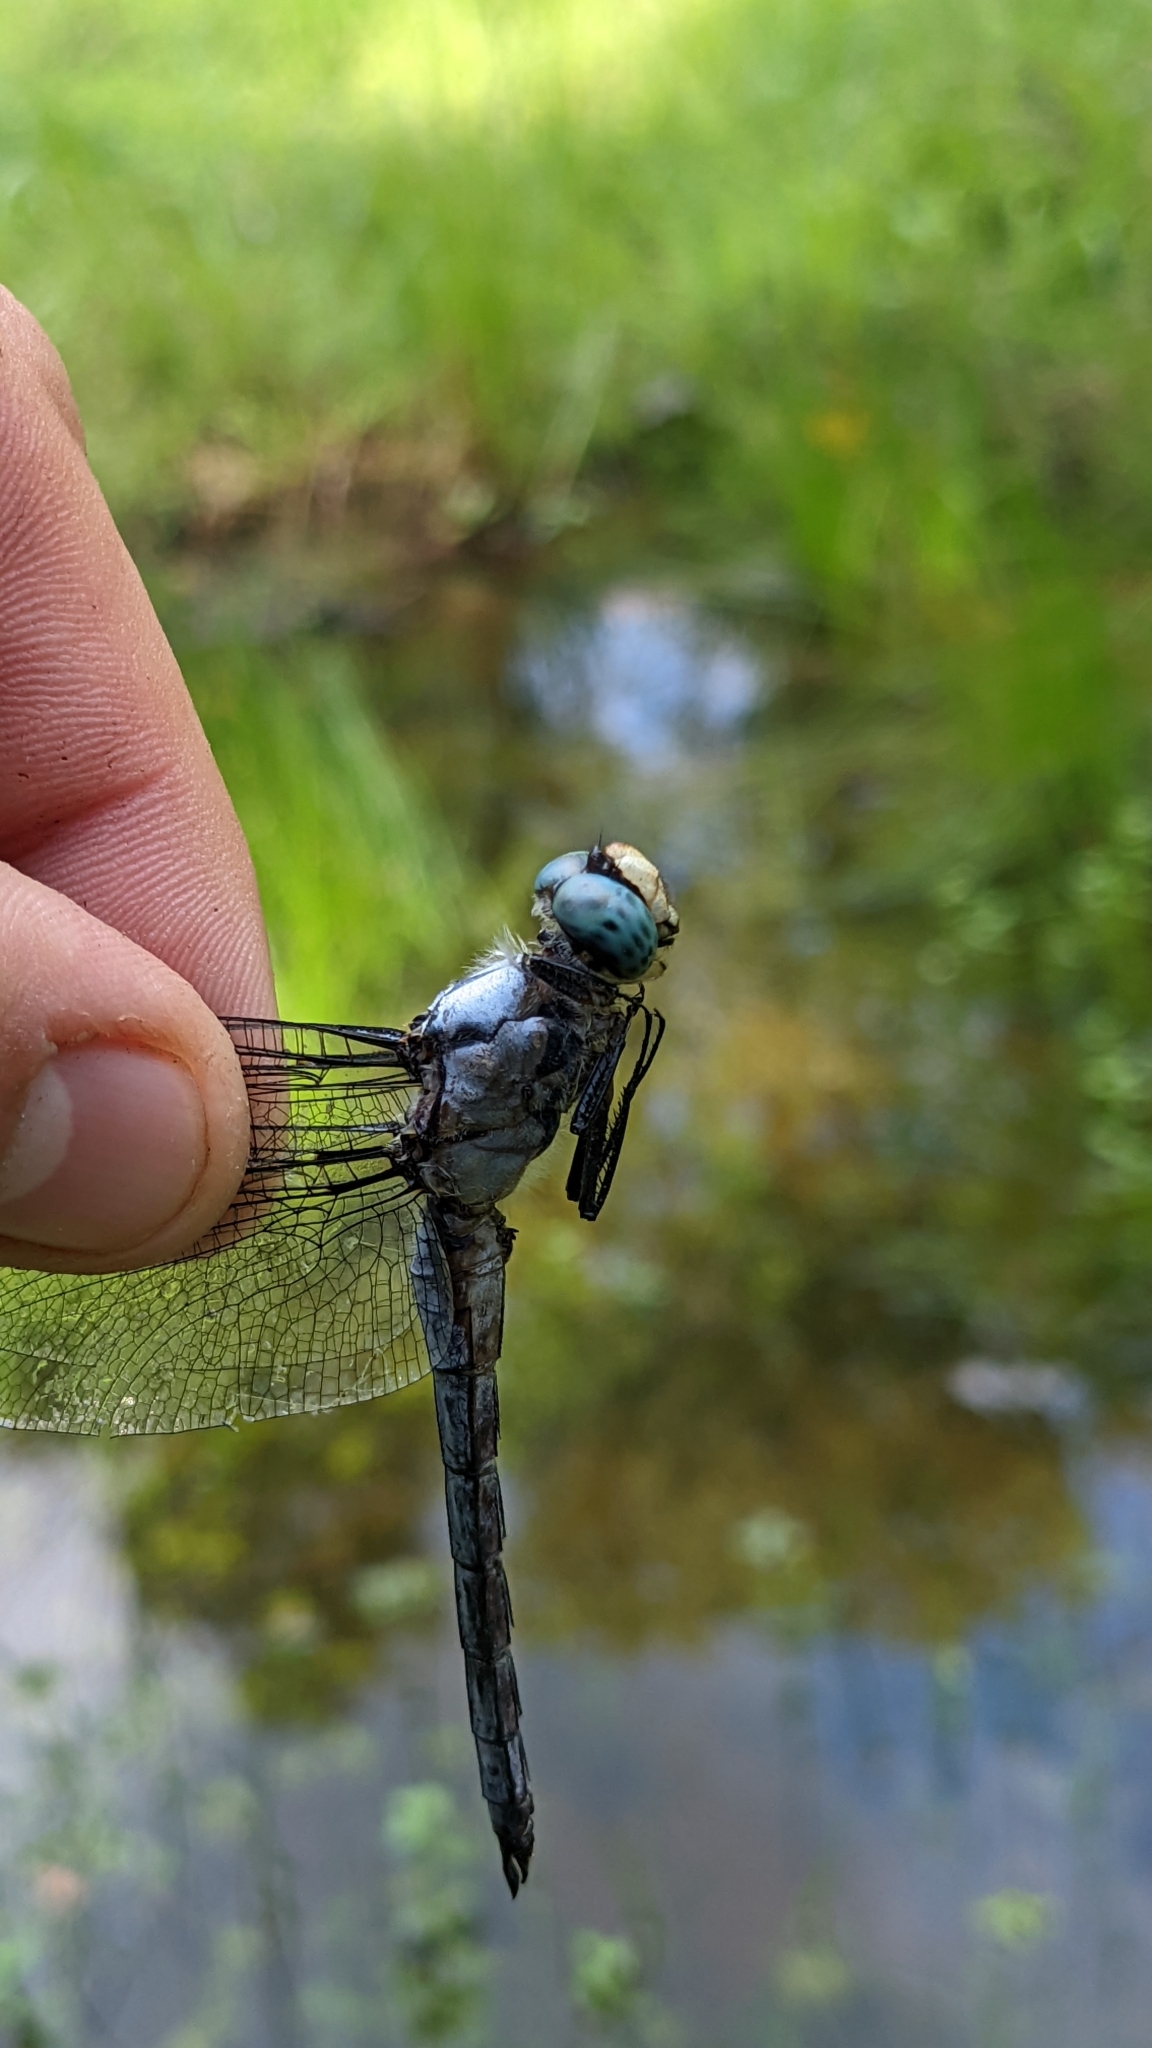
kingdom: Animalia
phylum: Arthropoda
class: Insecta
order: Odonata
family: Libellulidae
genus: Libellula
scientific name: Libellula vibrans
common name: Great blue skimmer
